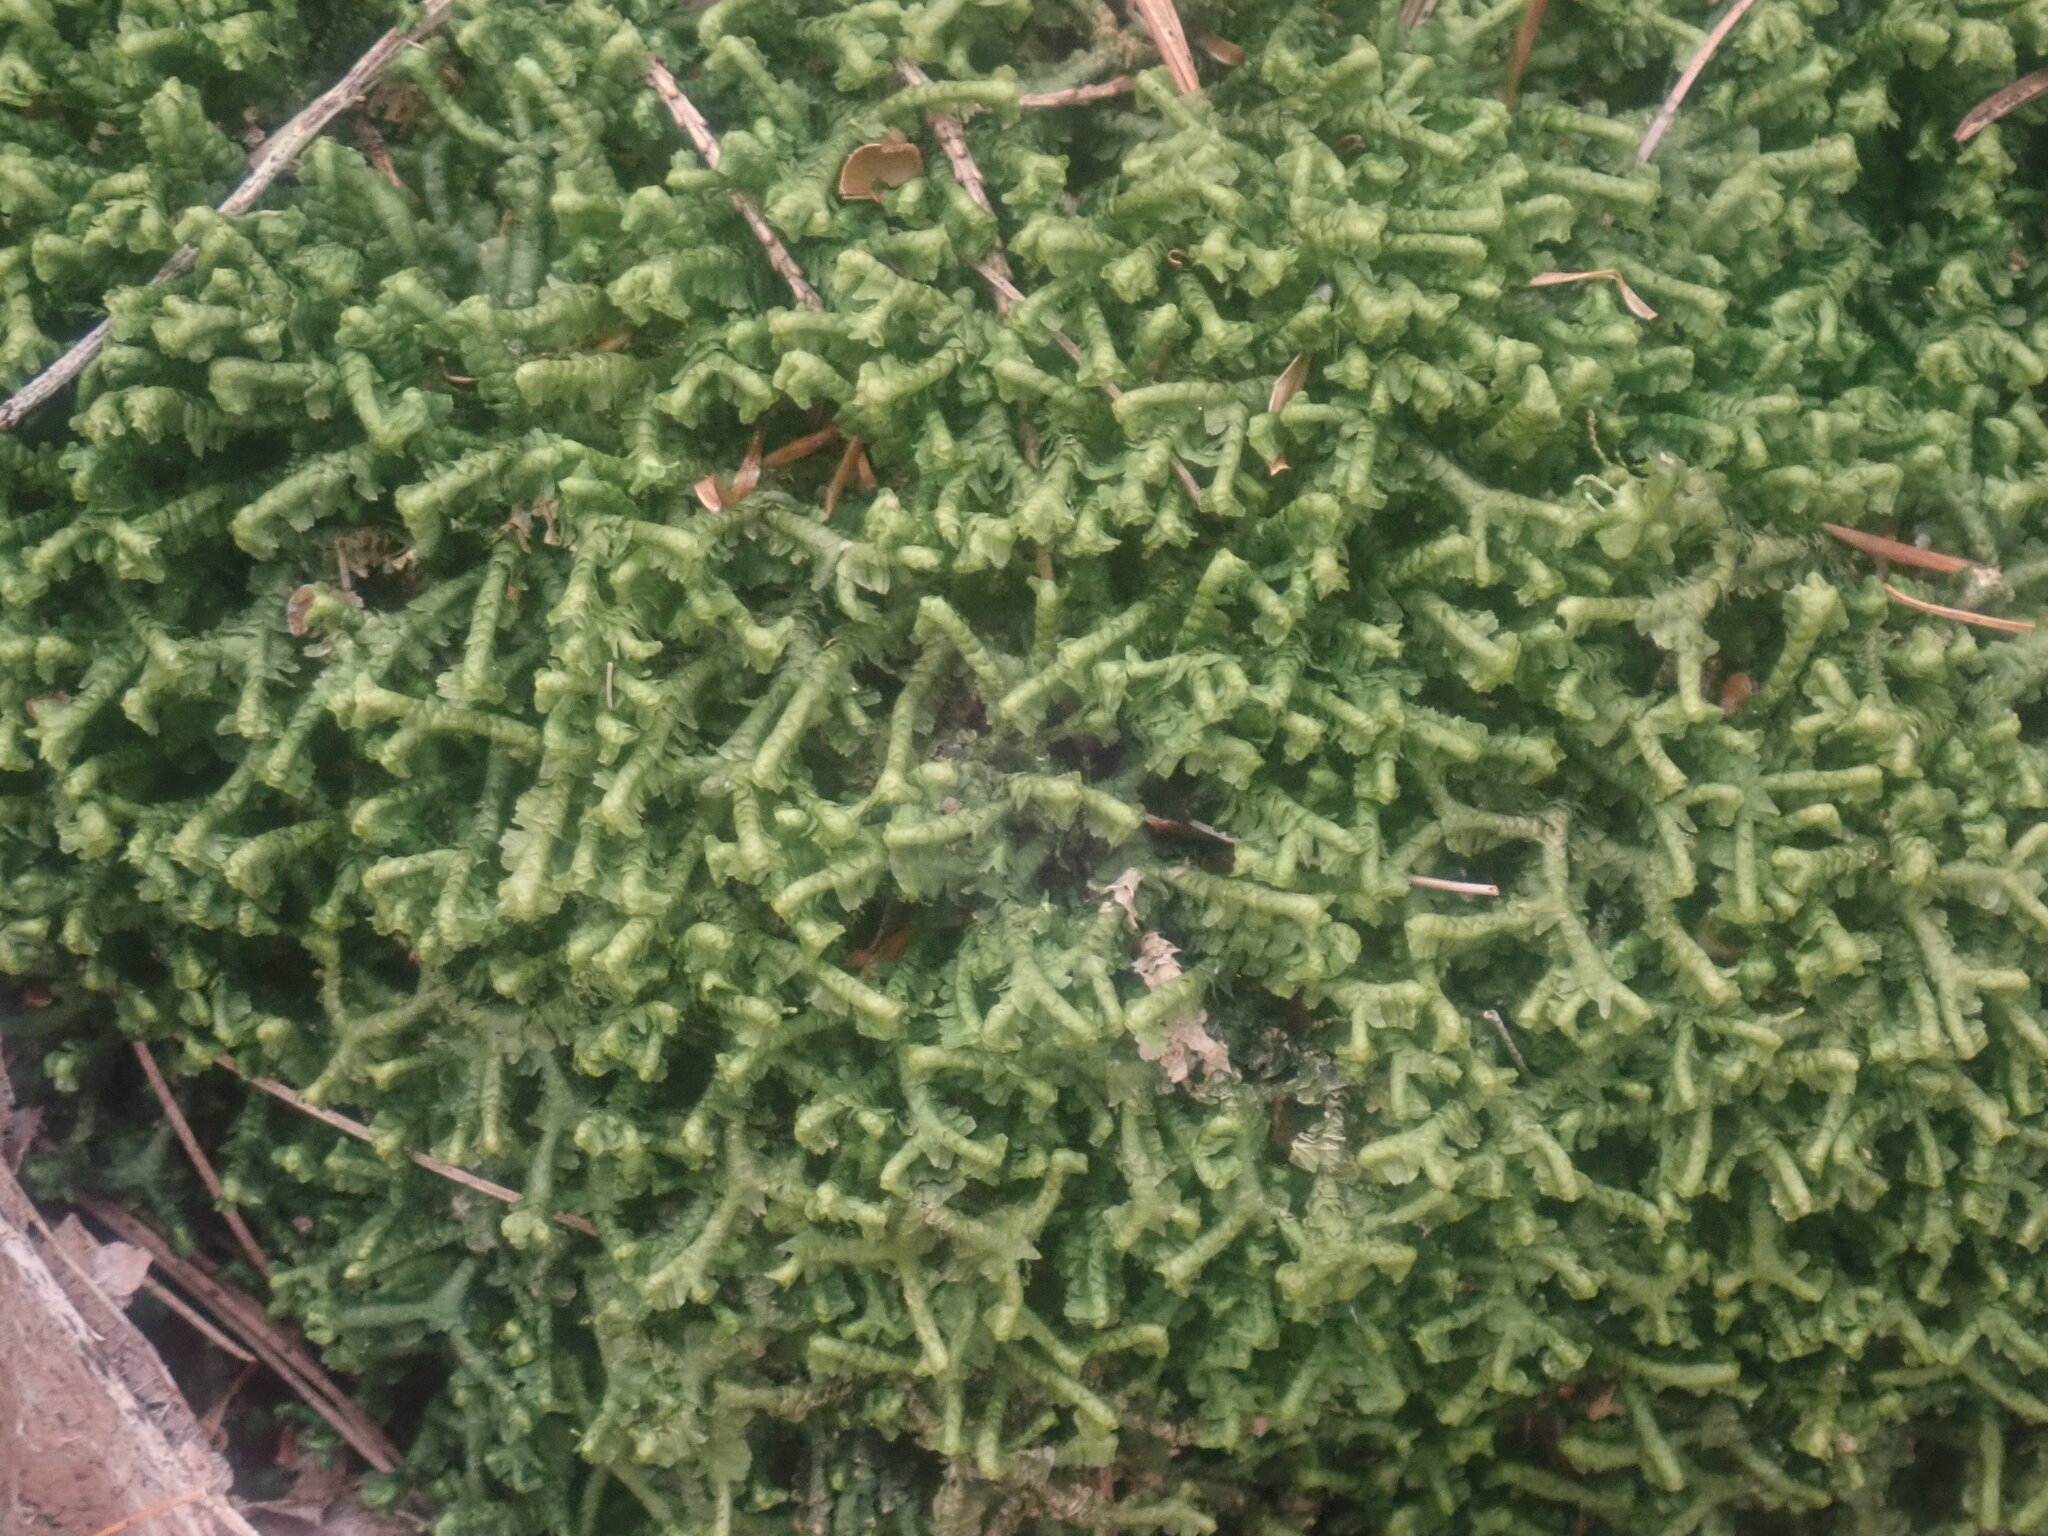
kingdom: Plantae
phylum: Marchantiophyta
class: Jungermanniopsida
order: Jungermanniales
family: Lepidoziaceae
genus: Bazzania
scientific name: Bazzania trilobata
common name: Three-lobed whipwort
